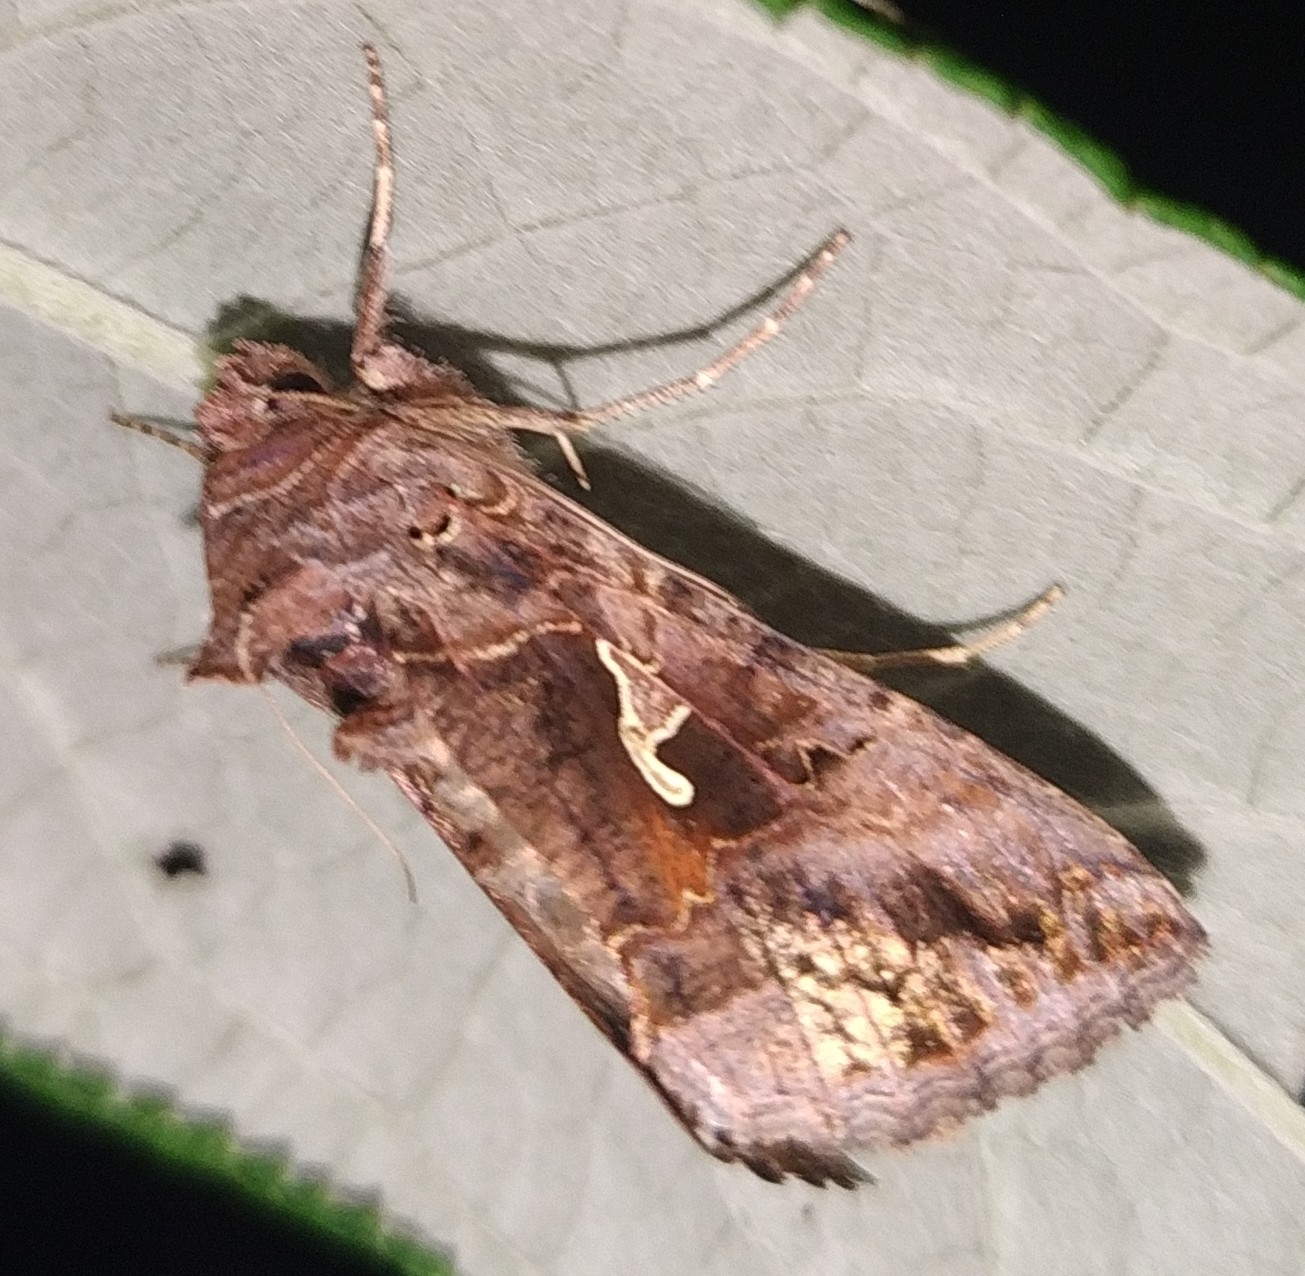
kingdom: Animalia
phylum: Arthropoda
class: Insecta
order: Lepidoptera
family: Noctuidae
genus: Autographa
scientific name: Autographa gamma
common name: Silver y
